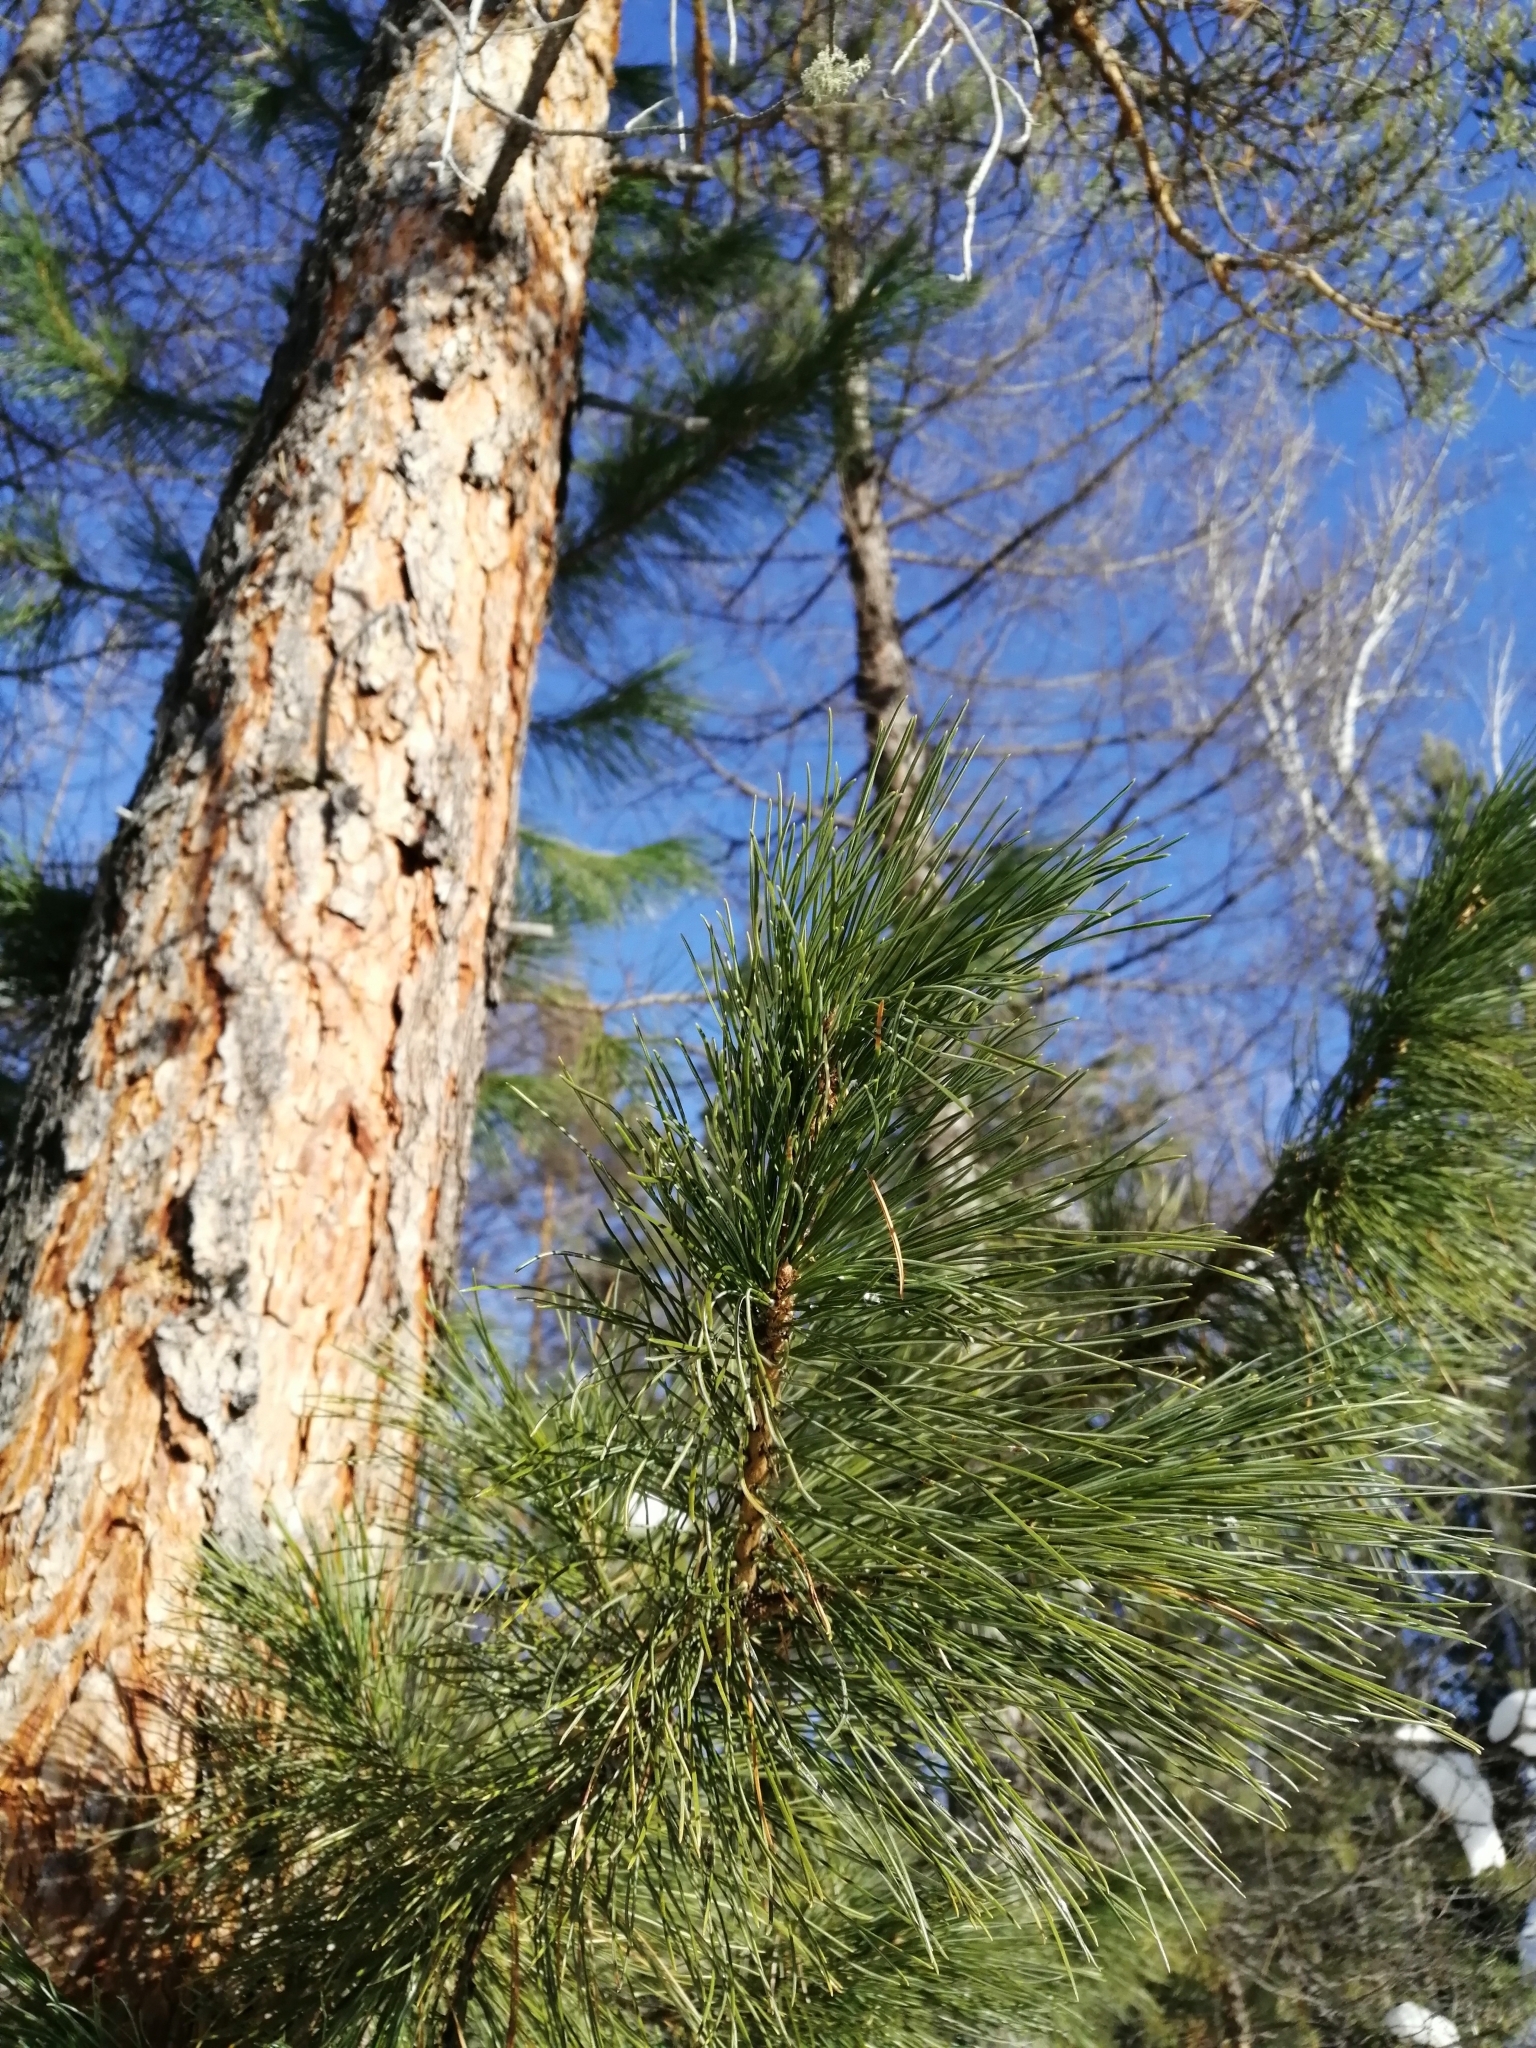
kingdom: Plantae
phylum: Tracheophyta
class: Pinopsida
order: Pinales
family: Pinaceae
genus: Pinus
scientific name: Pinus sibirica
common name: Siberian pine
